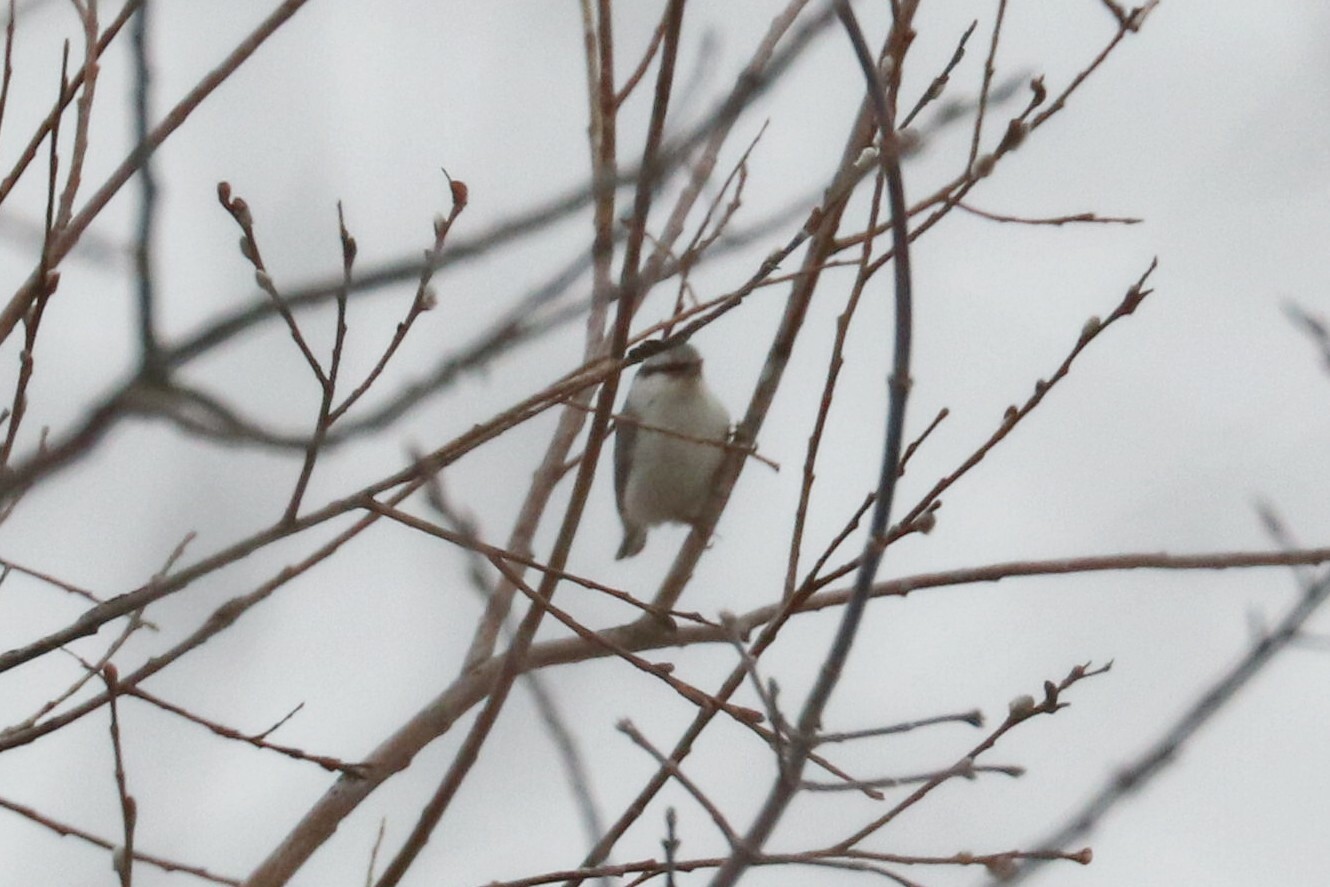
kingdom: Animalia
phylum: Chordata
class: Aves
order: Passeriformes
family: Sittidae
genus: Sitta
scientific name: Sitta europaea
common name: Eurasian nuthatch
